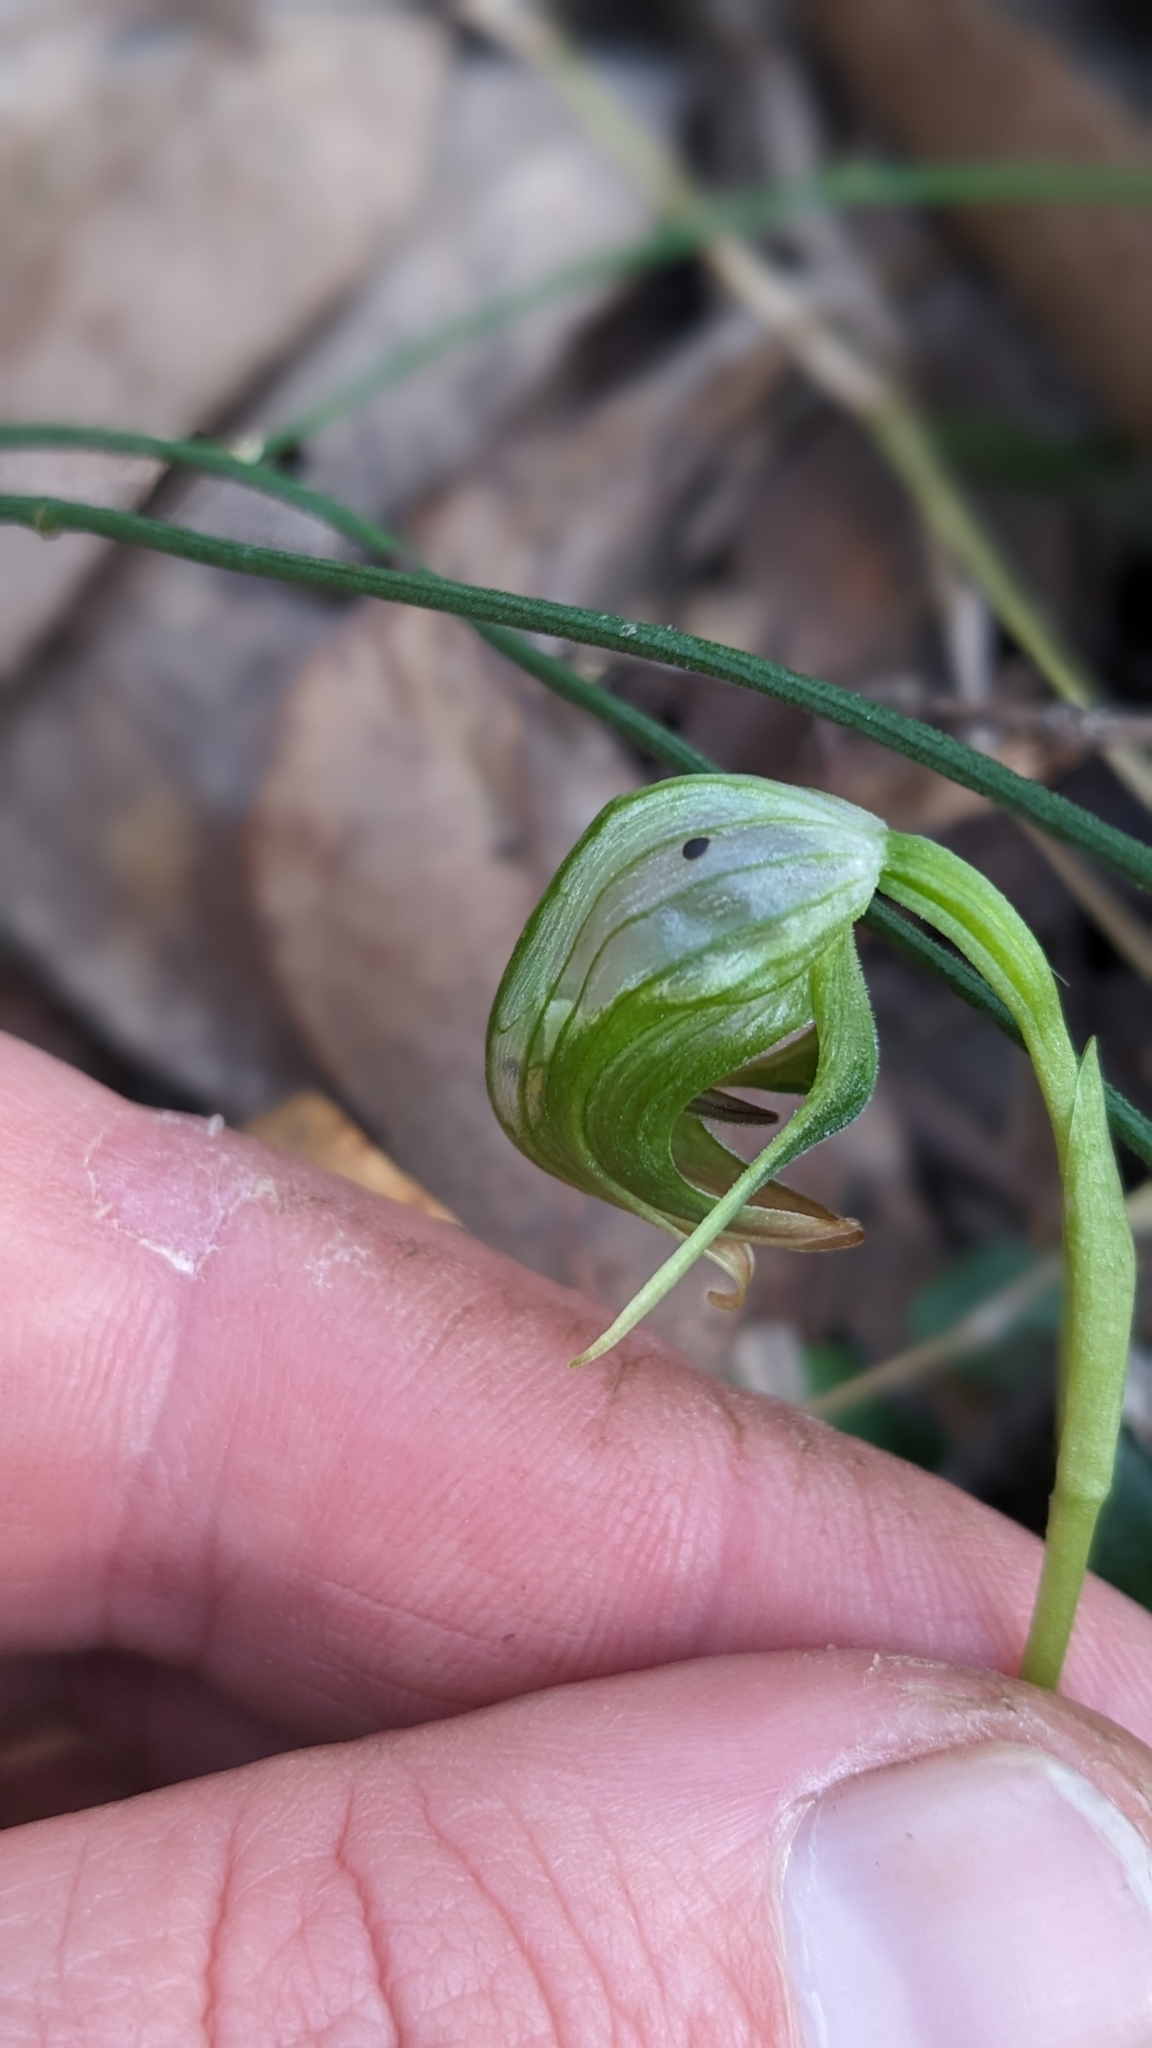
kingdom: Plantae
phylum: Tracheophyta
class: Liliopsida
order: Asparagales
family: Orchidaceae
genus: Pterostylis
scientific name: Pterostylis nutans
